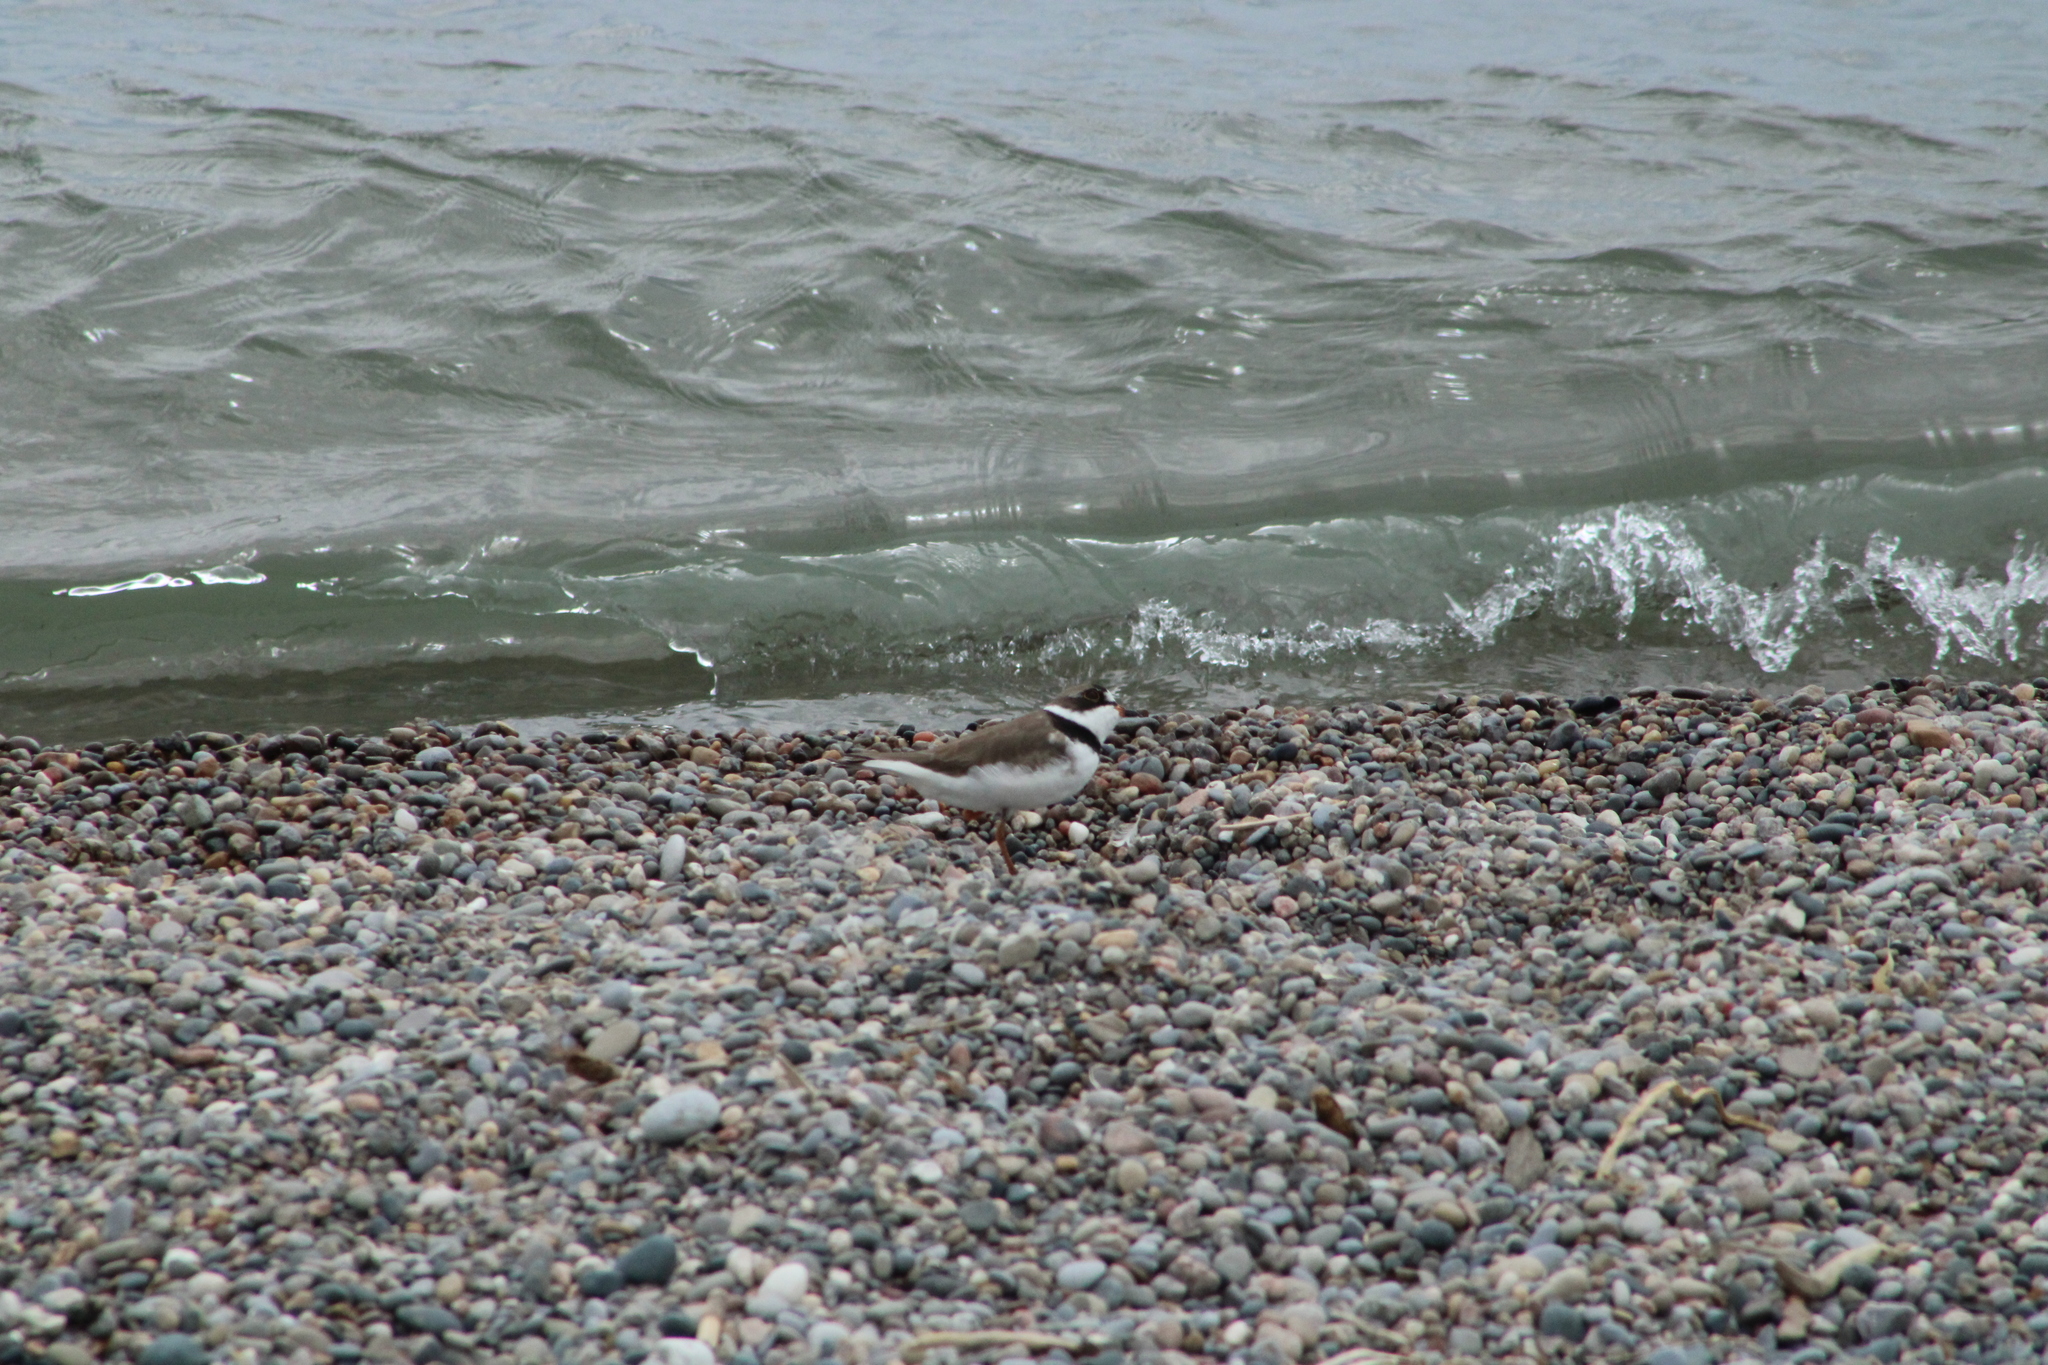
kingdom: Animalia
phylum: Chordata
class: Aves
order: Charadriiformes
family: Charadriidae
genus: Charadrius
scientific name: Charadrius semipalmatus
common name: Semipalmated plover
